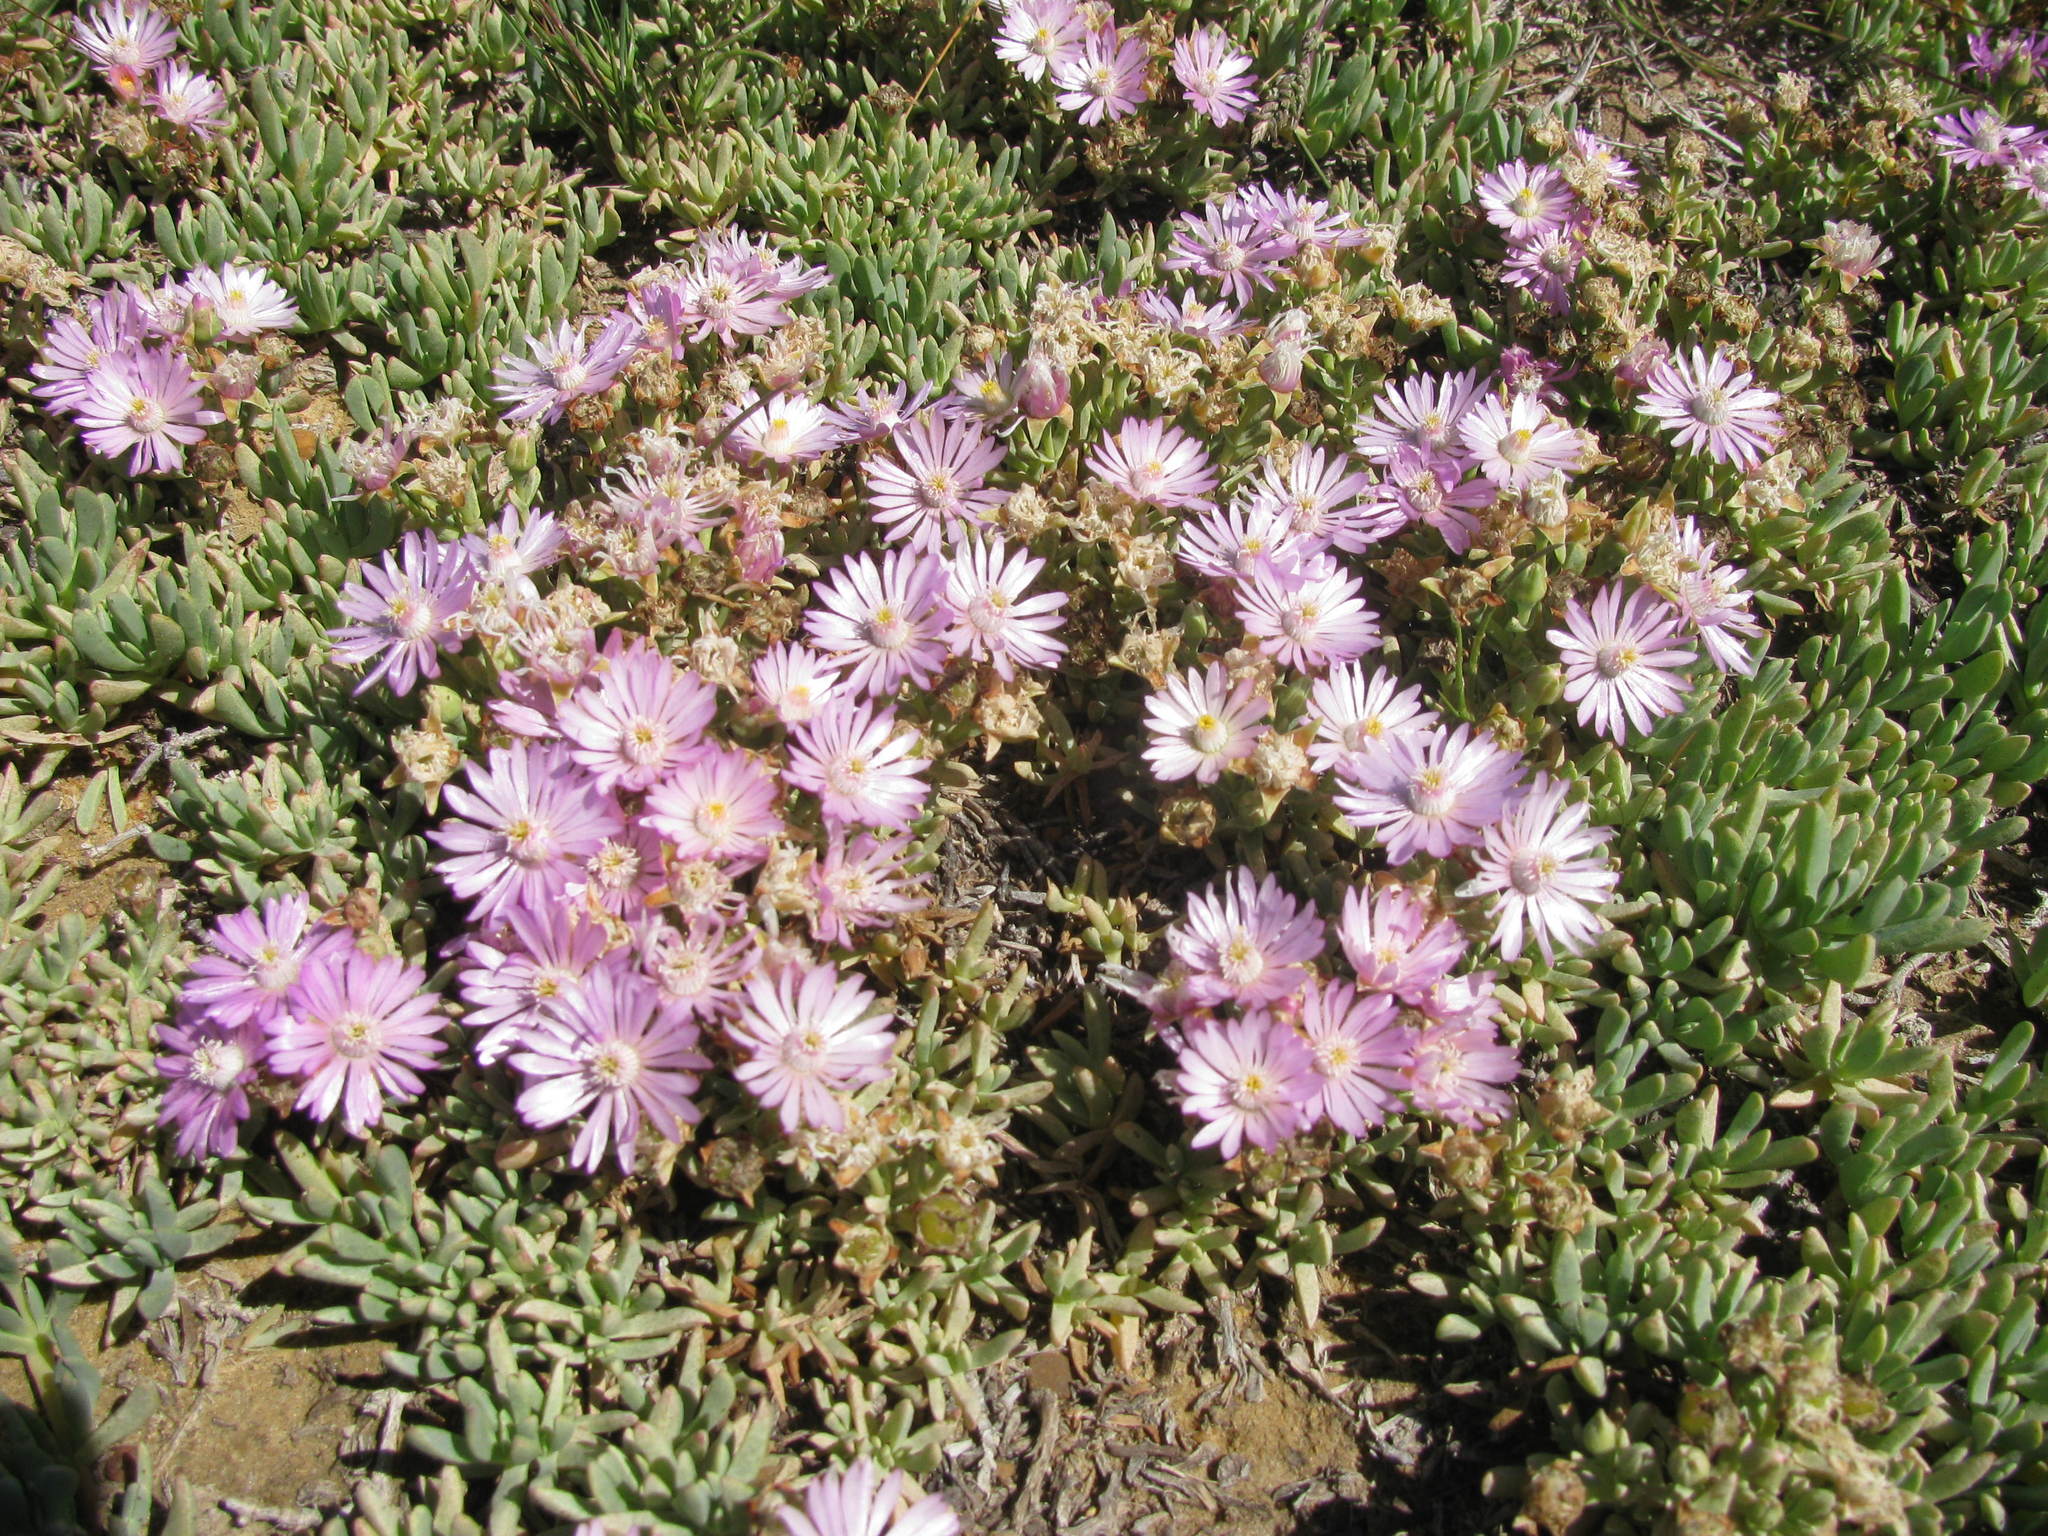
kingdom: Plantae
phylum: Tracheophyta
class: Magnoliopsida
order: Caryophyllales
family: Aizoaceae
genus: Lampranthus
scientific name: Lampranthus debilis
